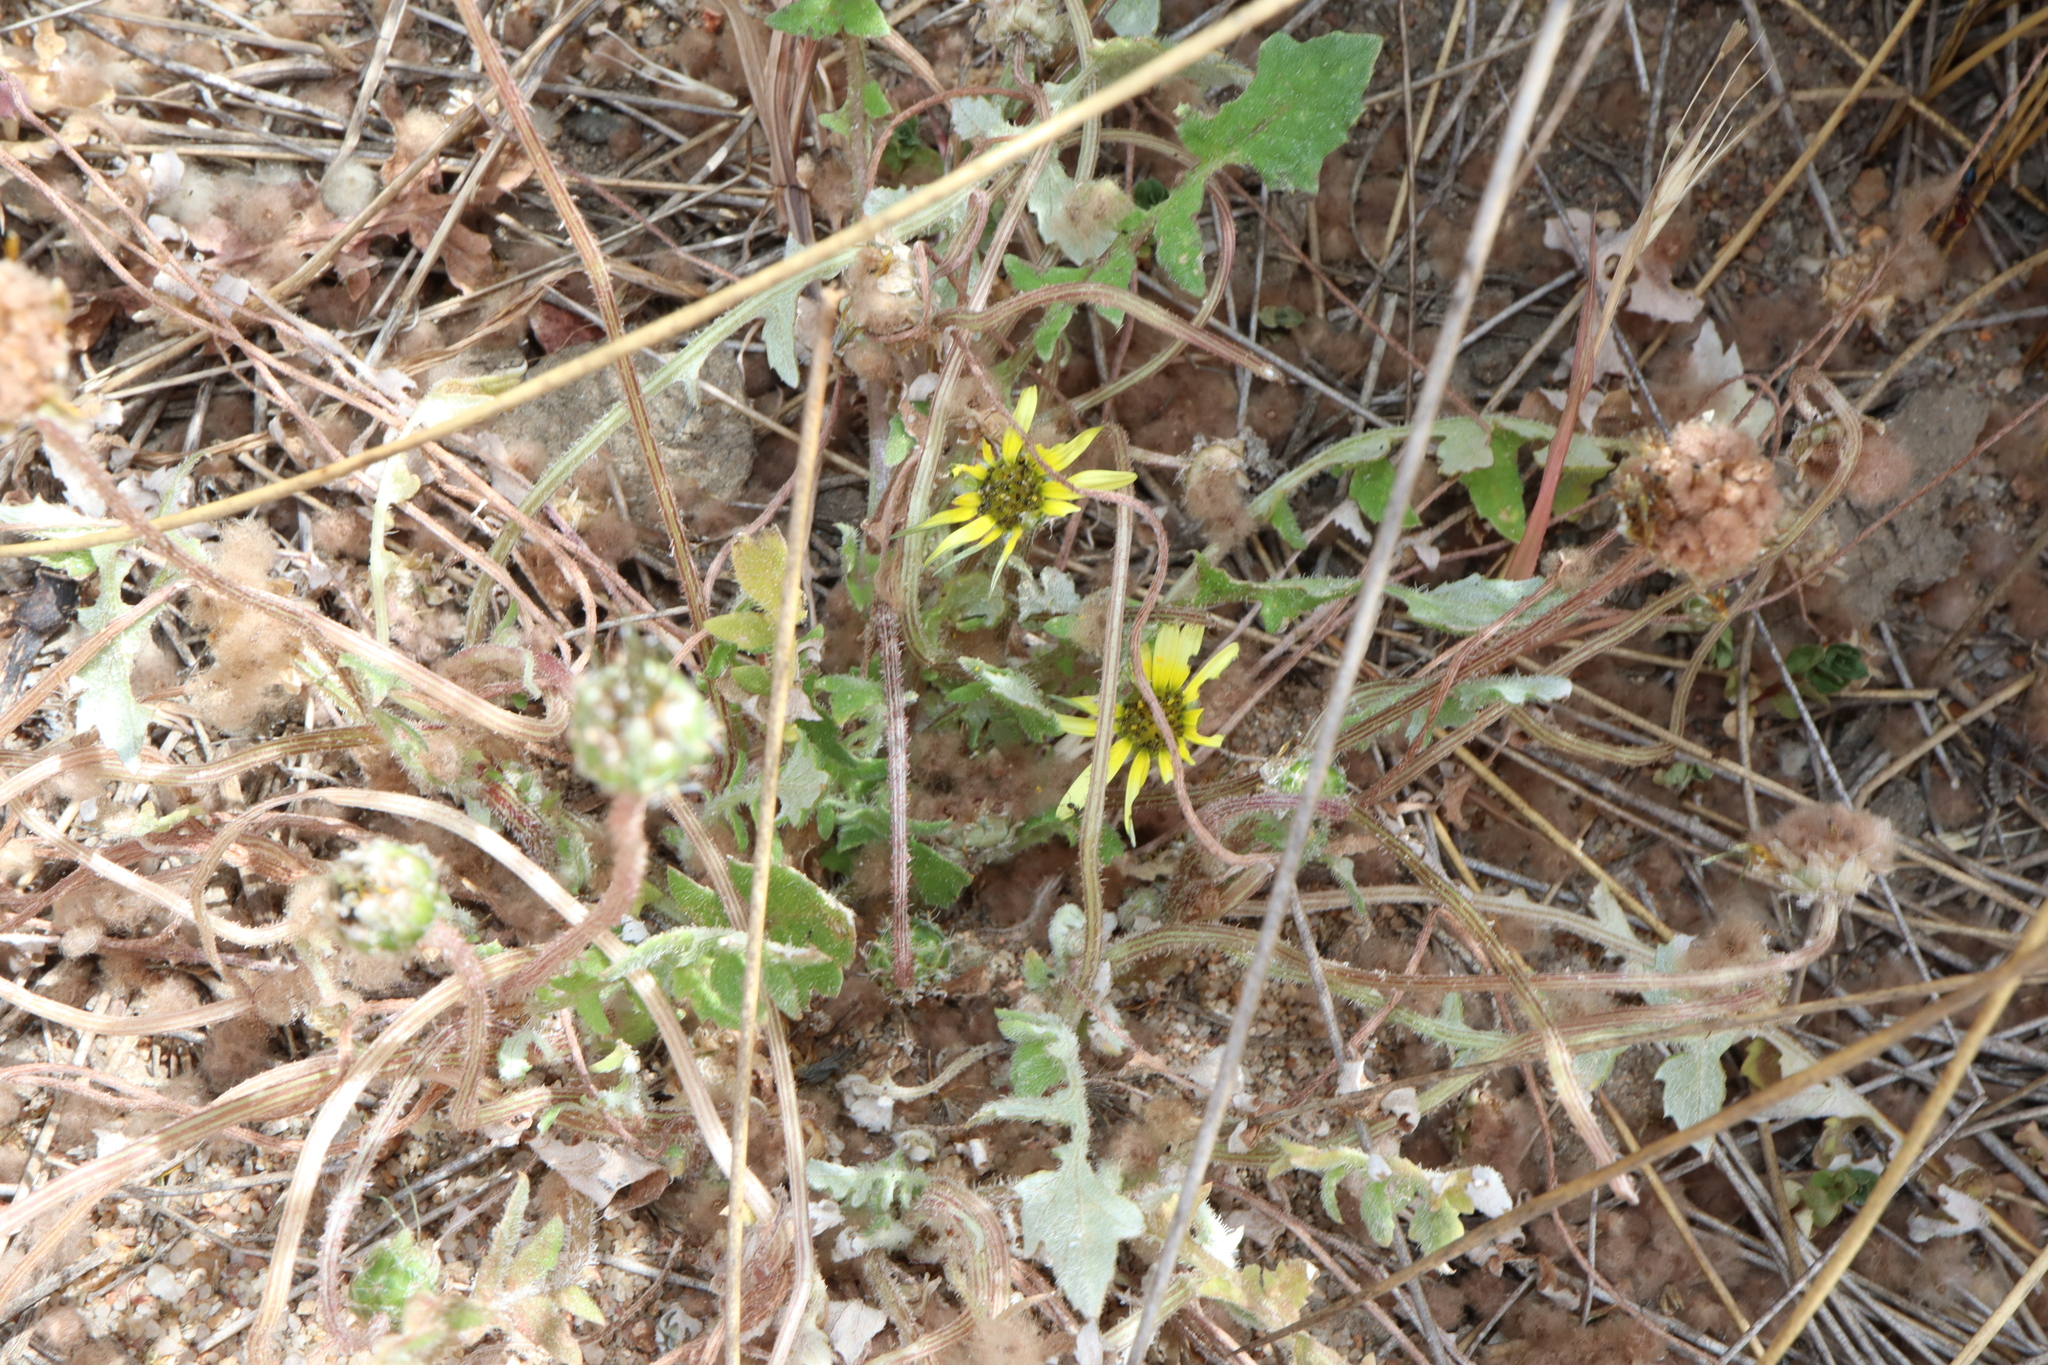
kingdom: Plantae
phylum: Tracheophyta
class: Magnoliopsida
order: Asterales
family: Asteraceae
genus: Arctotheca
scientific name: Arctotheca calendula
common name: Capeweed
